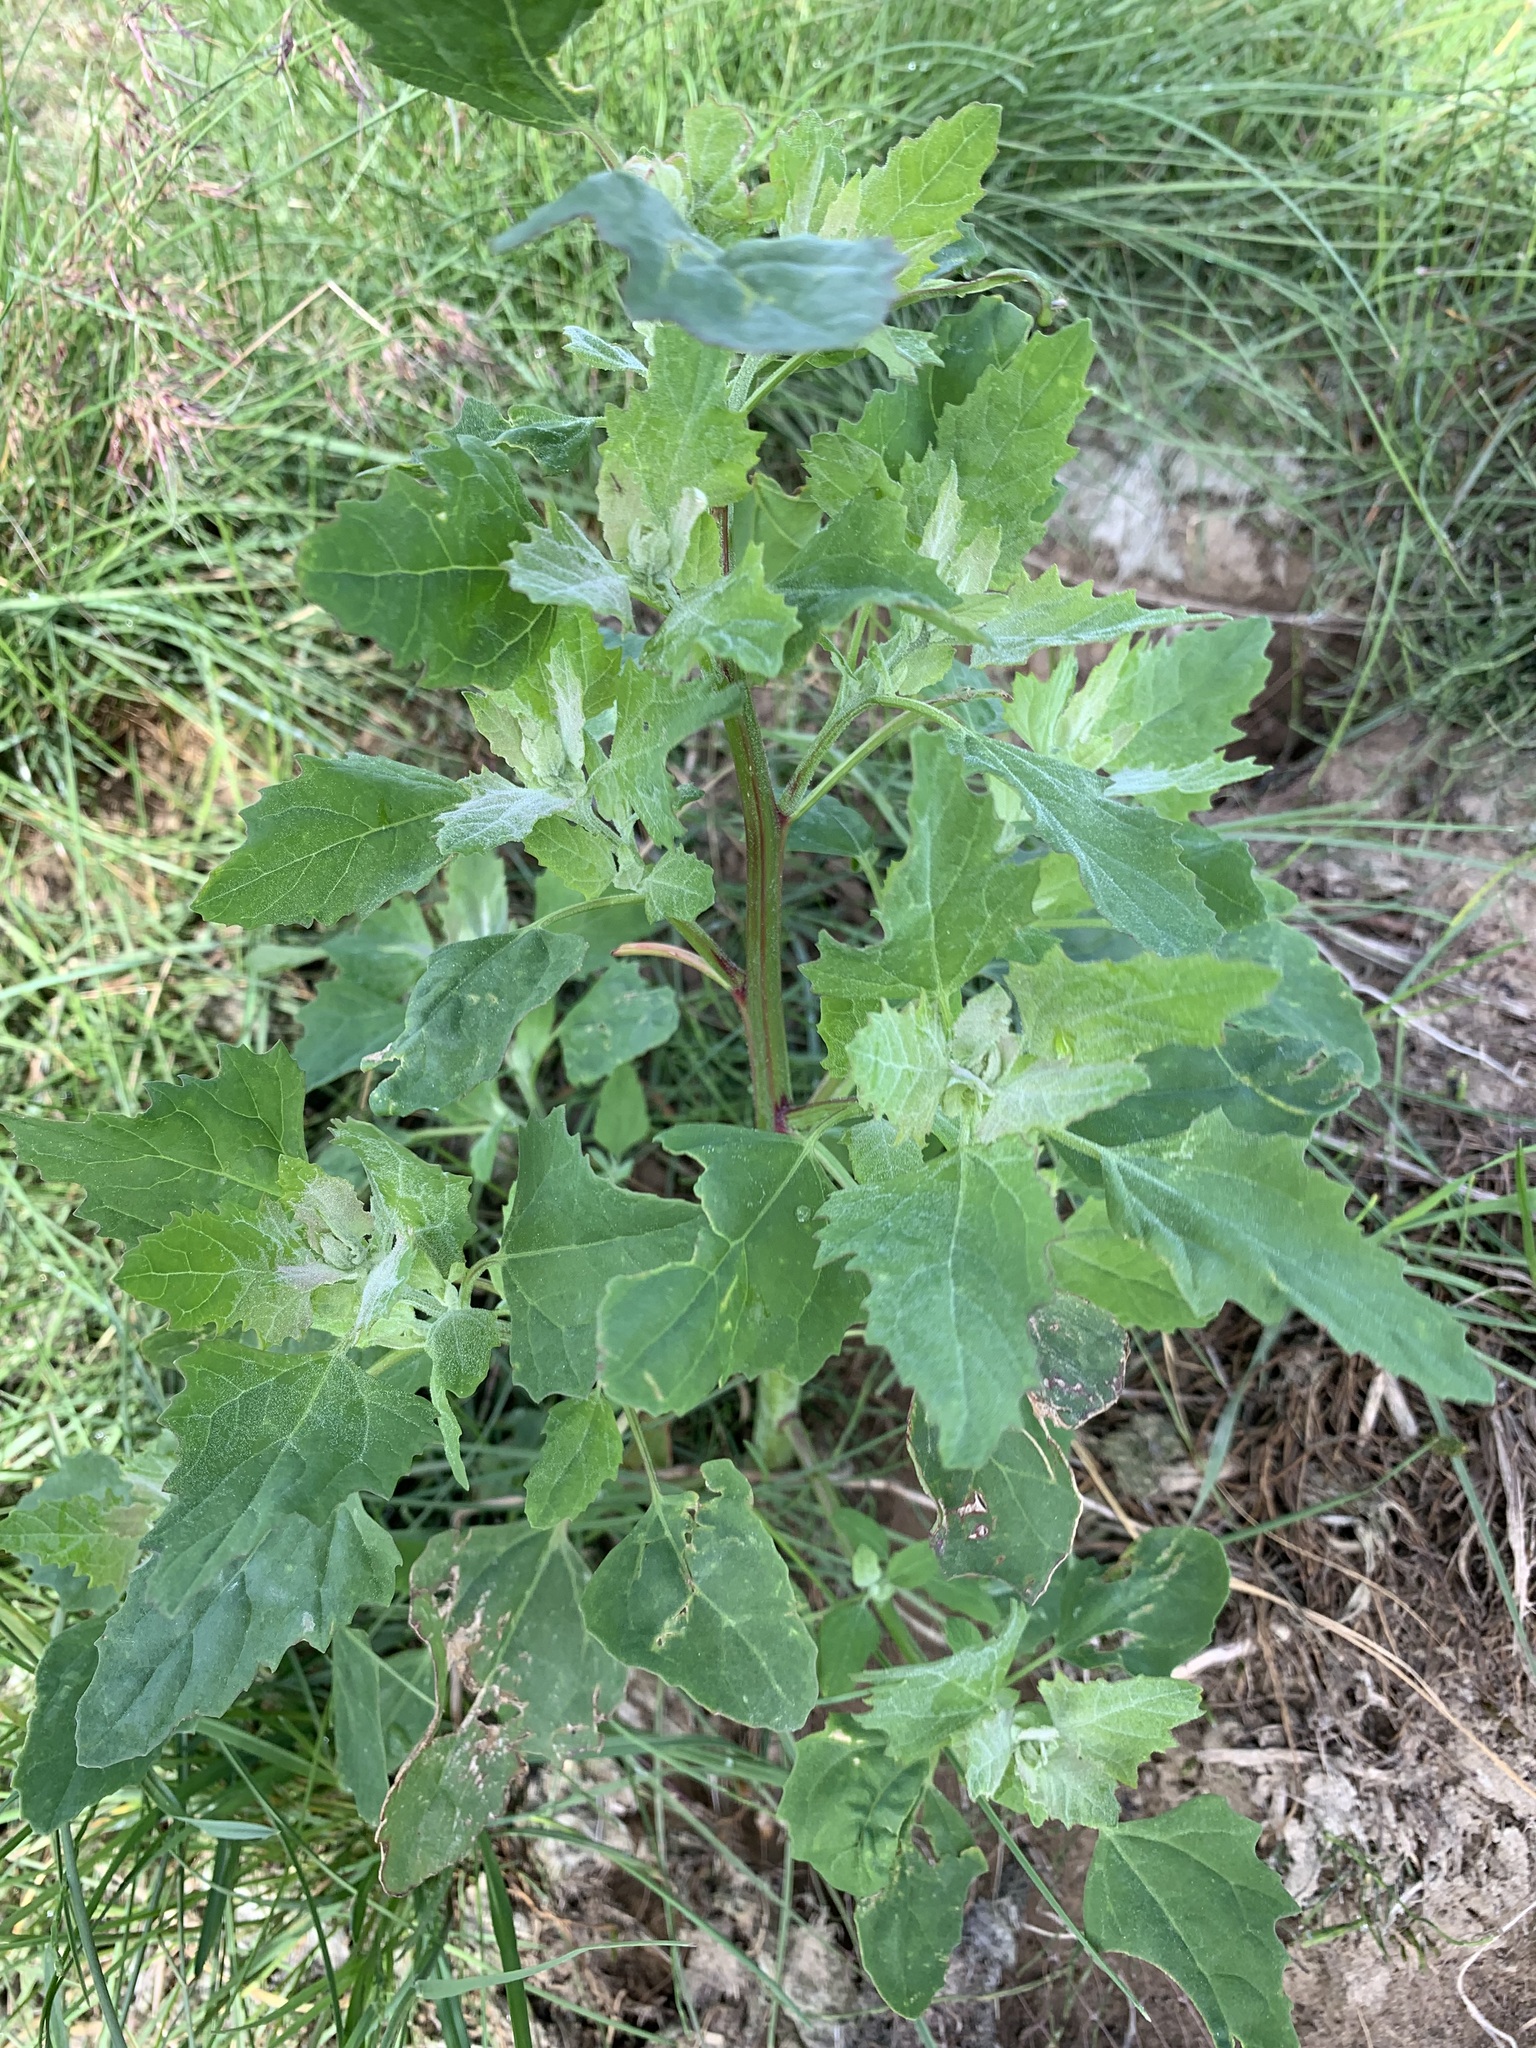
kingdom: Plantae
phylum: Tracheophyta
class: Magnoliopsida
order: Caryophyllales
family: Amaranthaceae
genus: Chenopodium
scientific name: Chenopodium album
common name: Fat-hen
